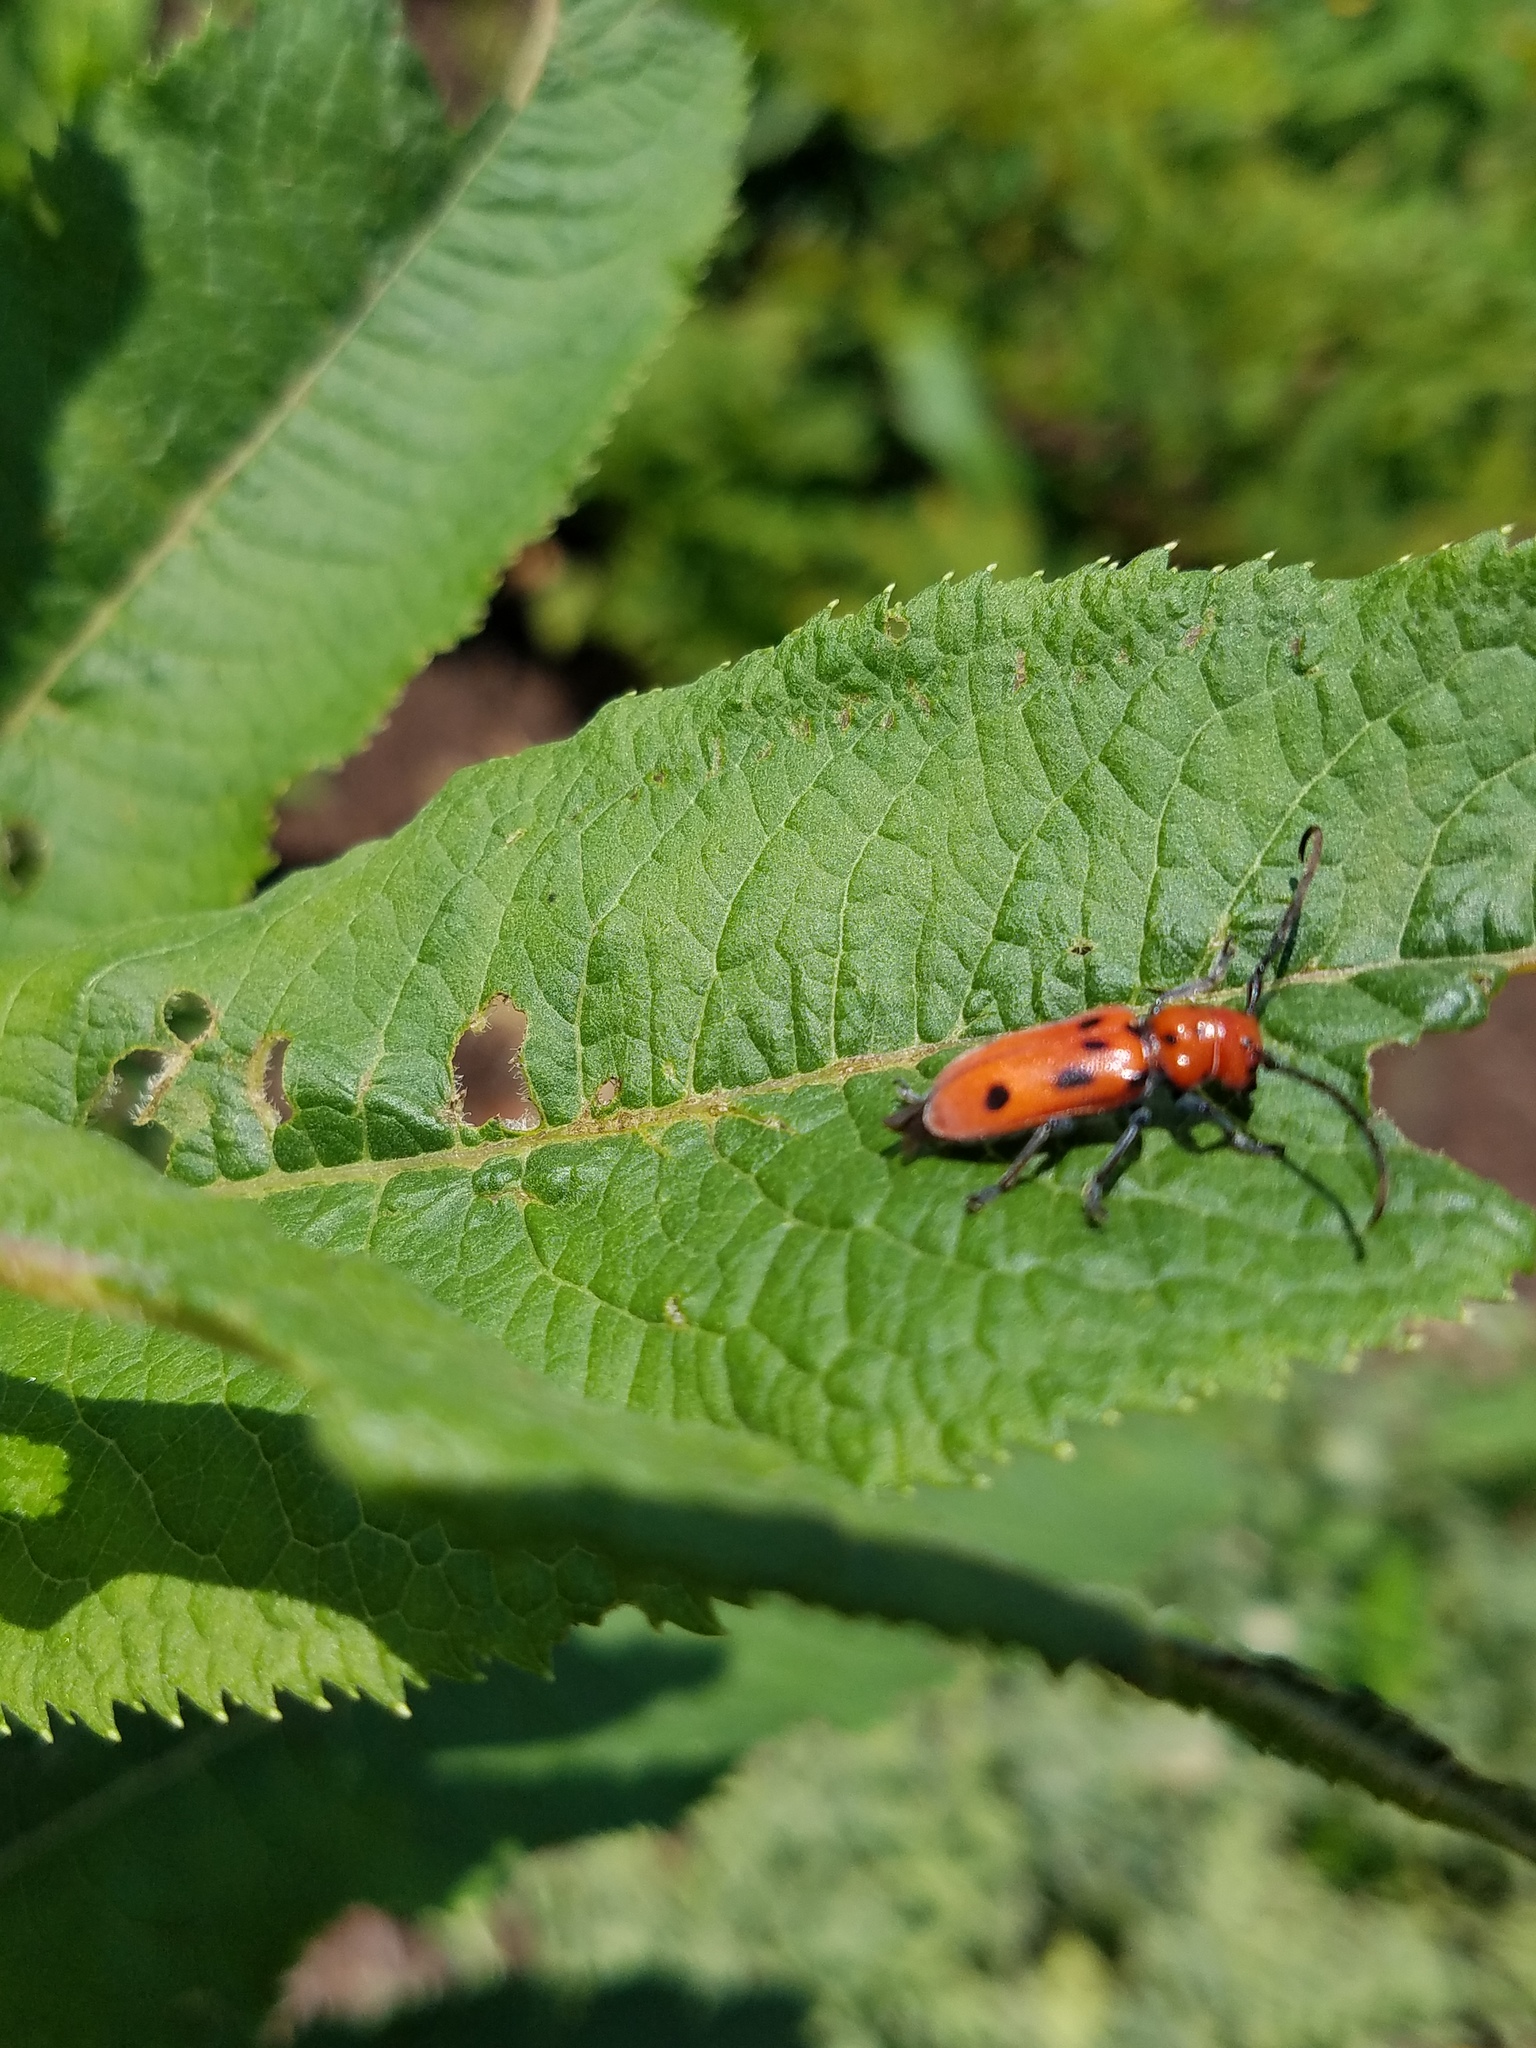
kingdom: Animalia
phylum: Arthropoda
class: Insecta
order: Coleoptera
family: Cerambycidae
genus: Tetraopes
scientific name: Tetraopes tetrophthalmus
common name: Red milkweed beetle
